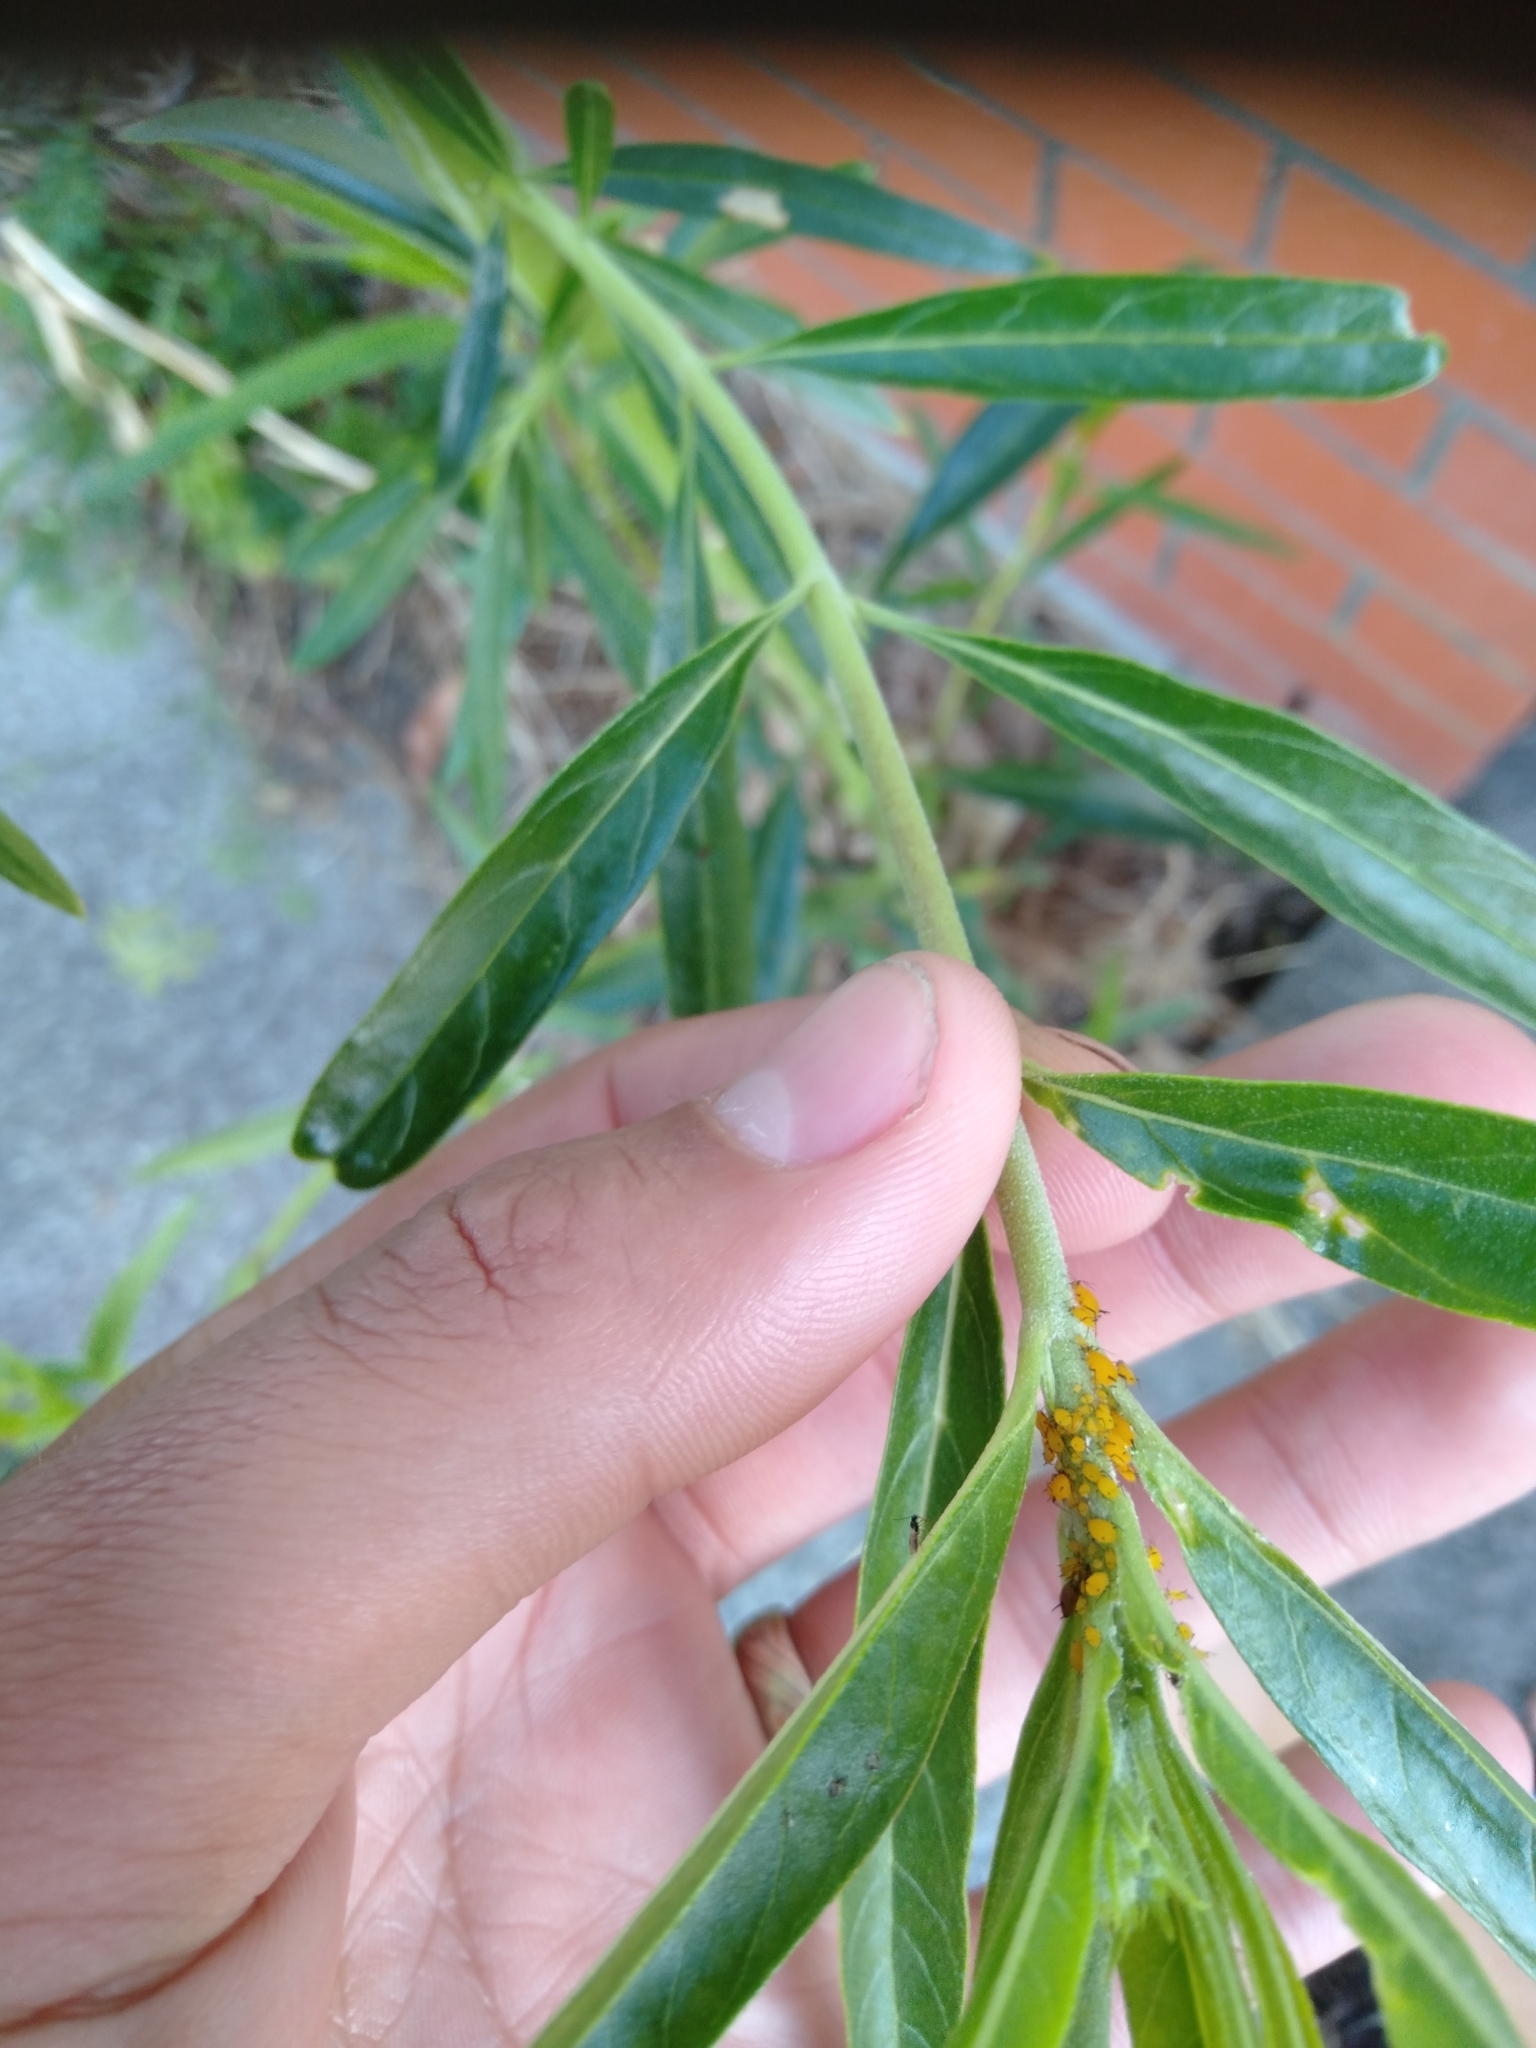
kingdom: Animalia
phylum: Arthropoda
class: Insecta
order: Hemiptera
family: Aphididae
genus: Aphis
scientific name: Aphis nerii
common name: Oleander aphid
